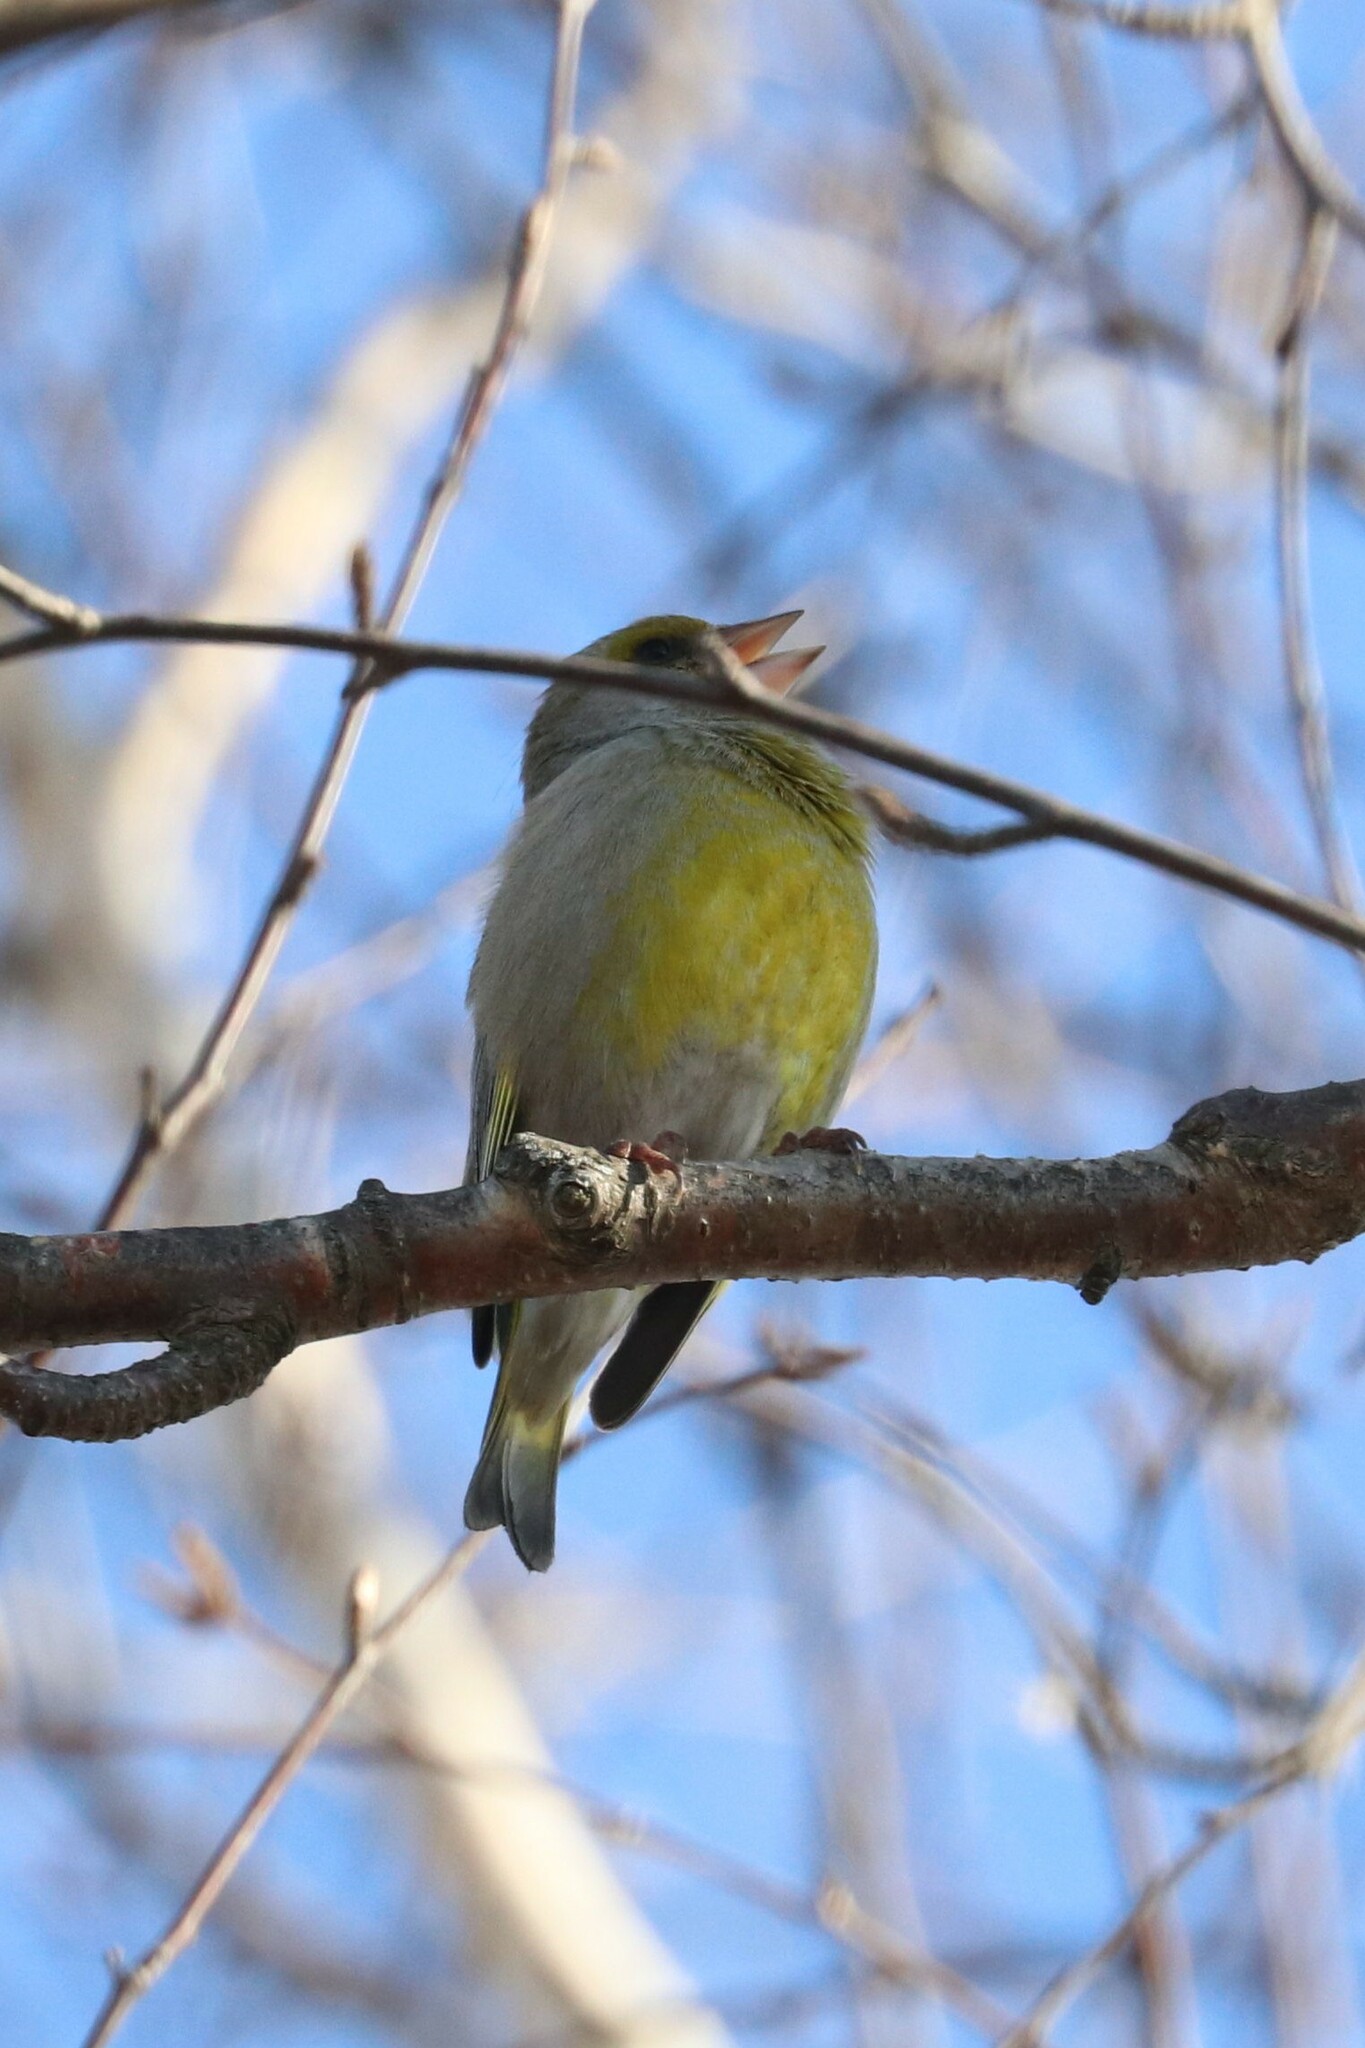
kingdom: Plantae
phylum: Tracheophyta
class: Liliopsida
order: Poales
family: Poaceae
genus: Chloris
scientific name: Chloris chloris
